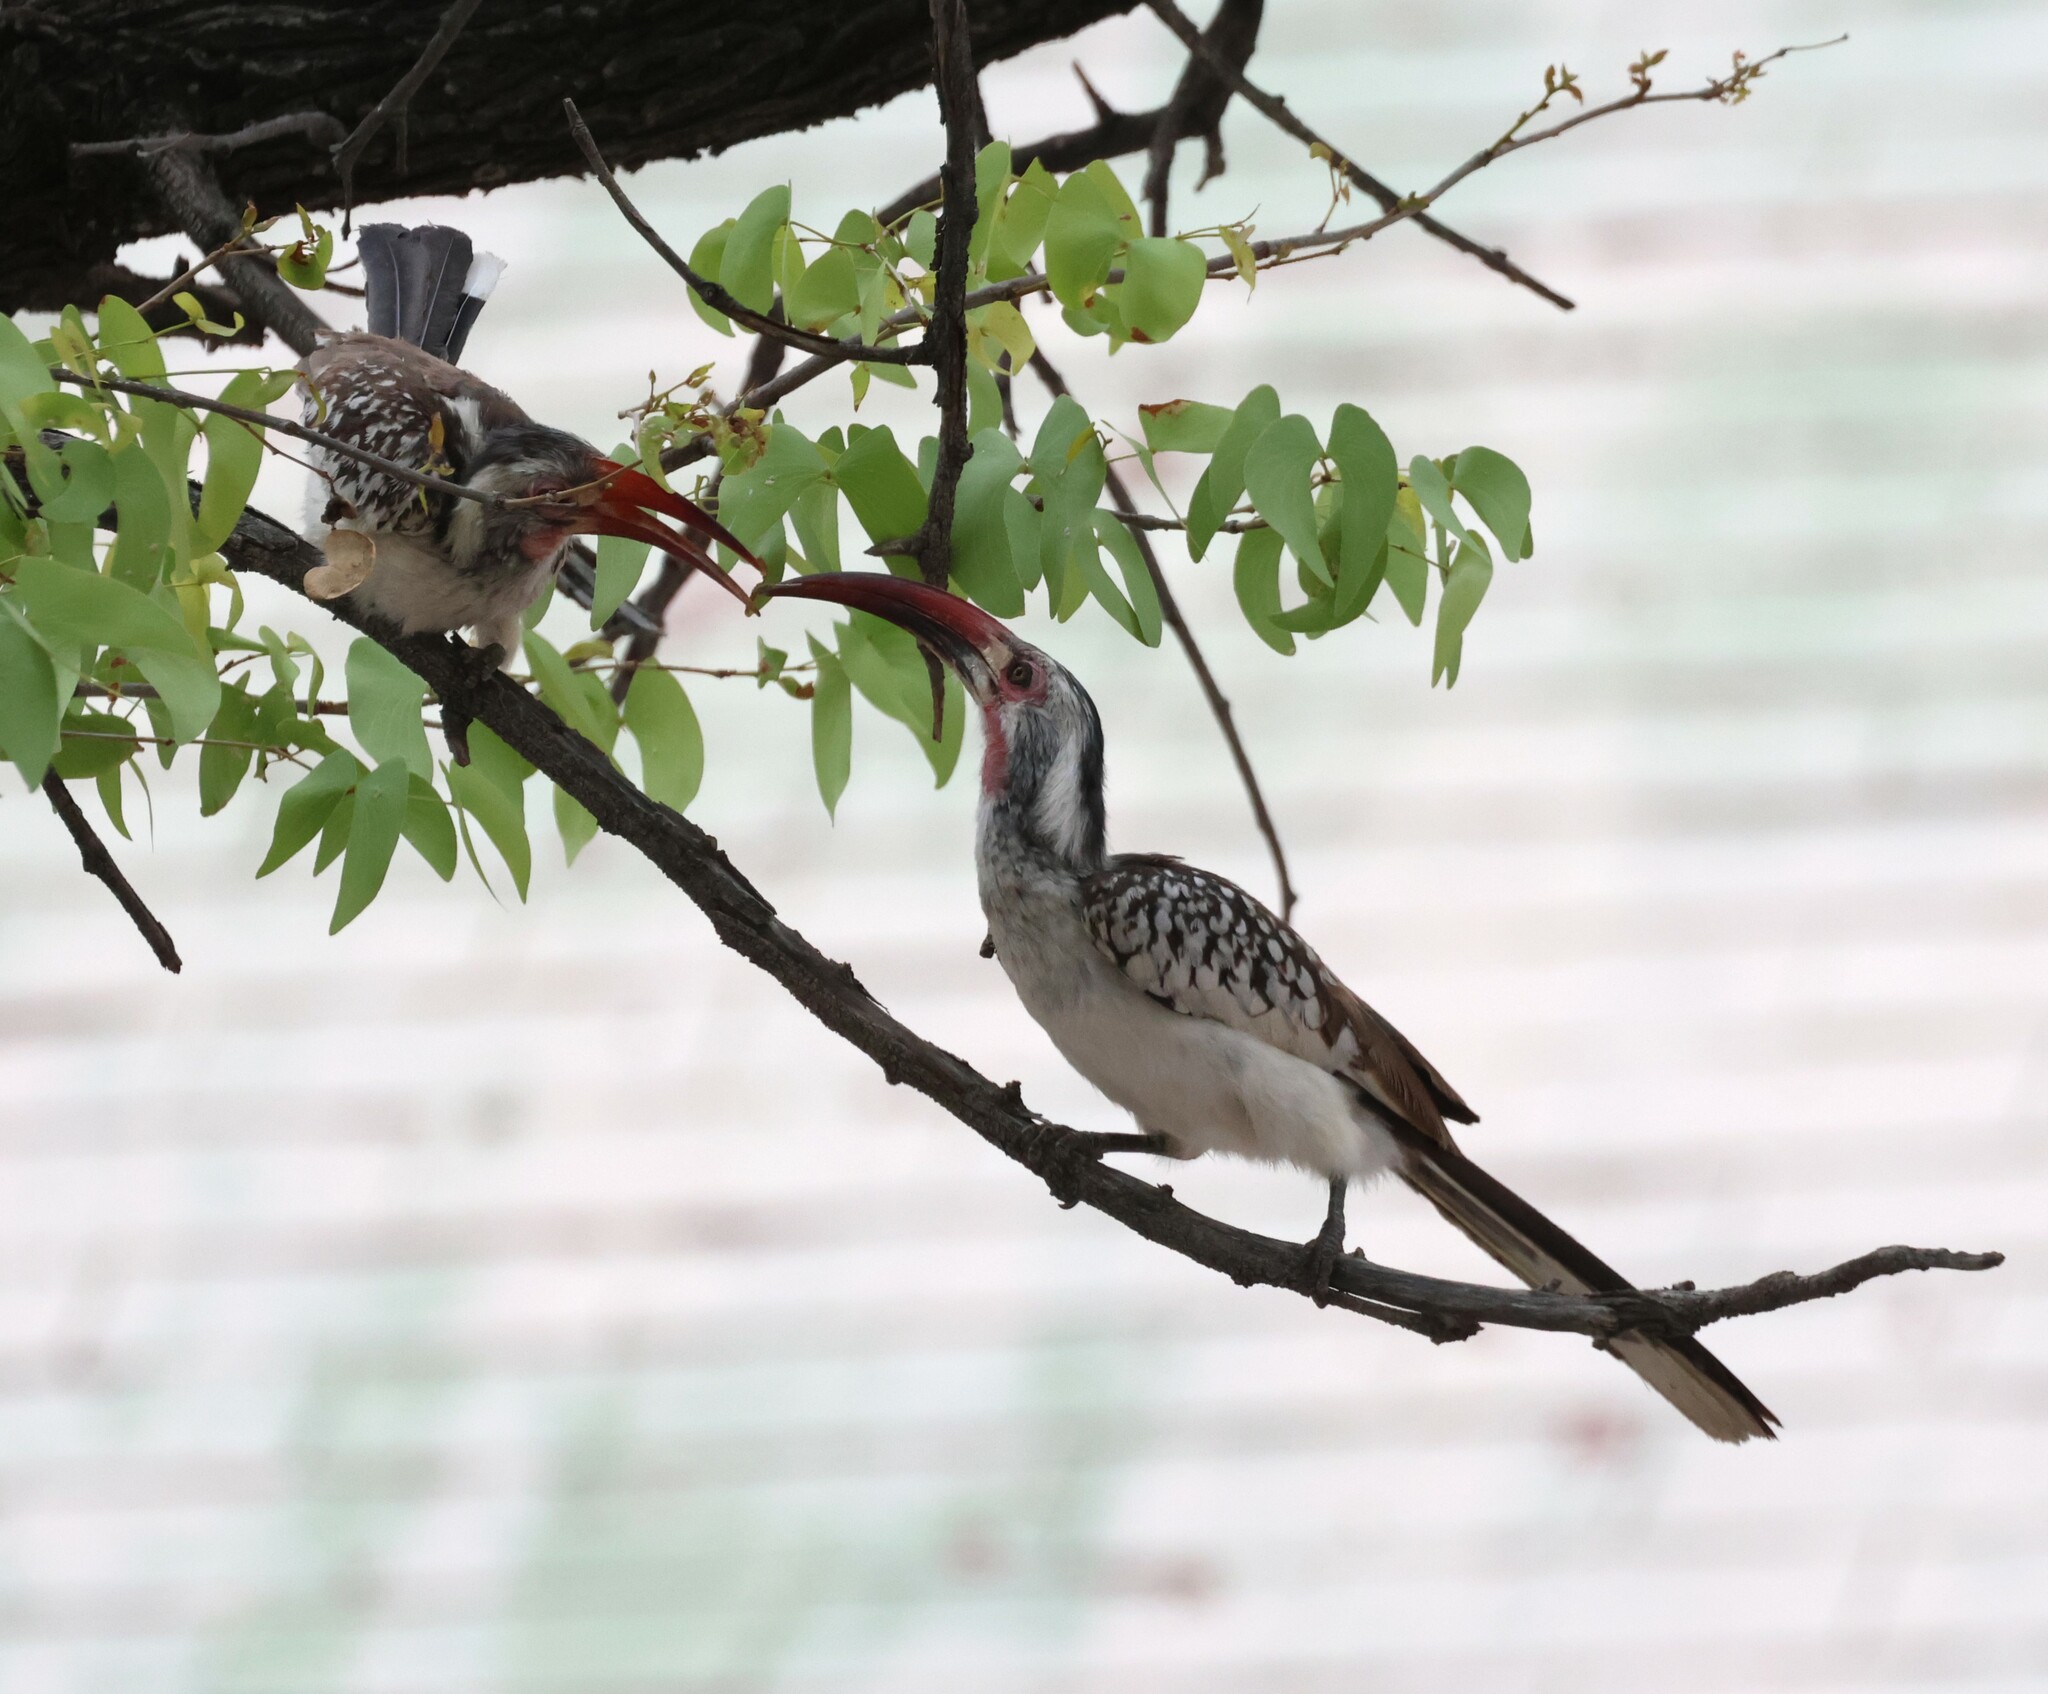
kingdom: Animalia
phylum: Chordata
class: Aves
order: Bucerotiformes
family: Bucerotidae
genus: Tockus
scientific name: Tockus rufirostris
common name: Southern red-billed hornbill
